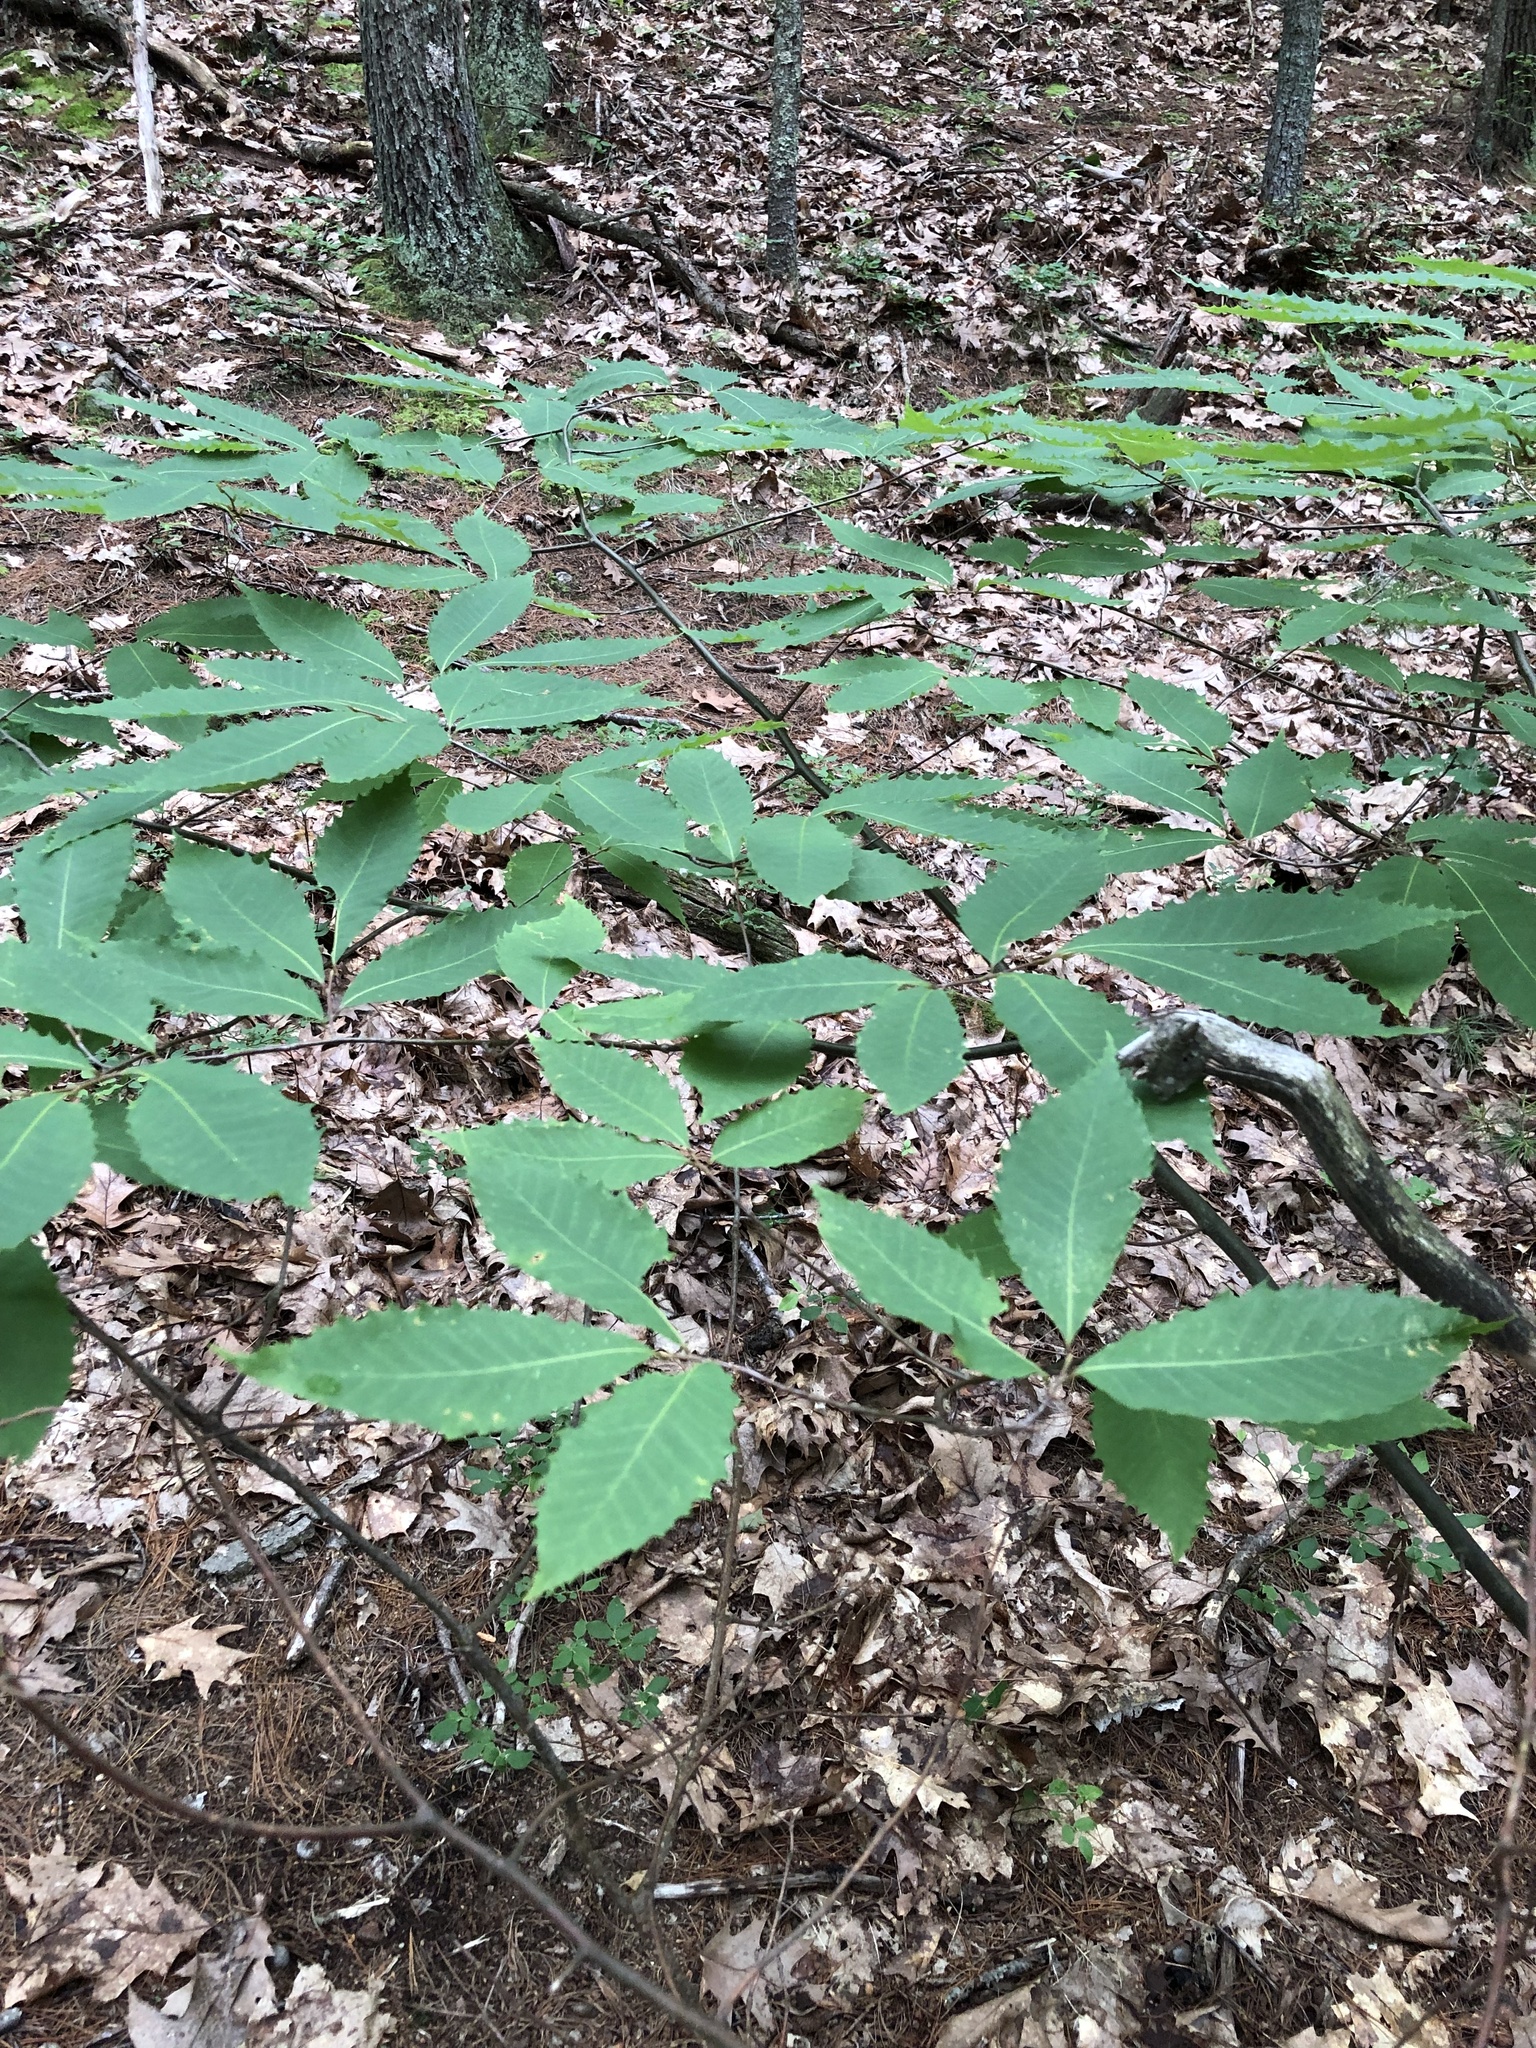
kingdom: Plantae
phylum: Tracheophyta
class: Magnoliopsida
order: Fagales
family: Fagaceae
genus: Castanea
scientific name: Castanea dentata
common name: American chestnut
